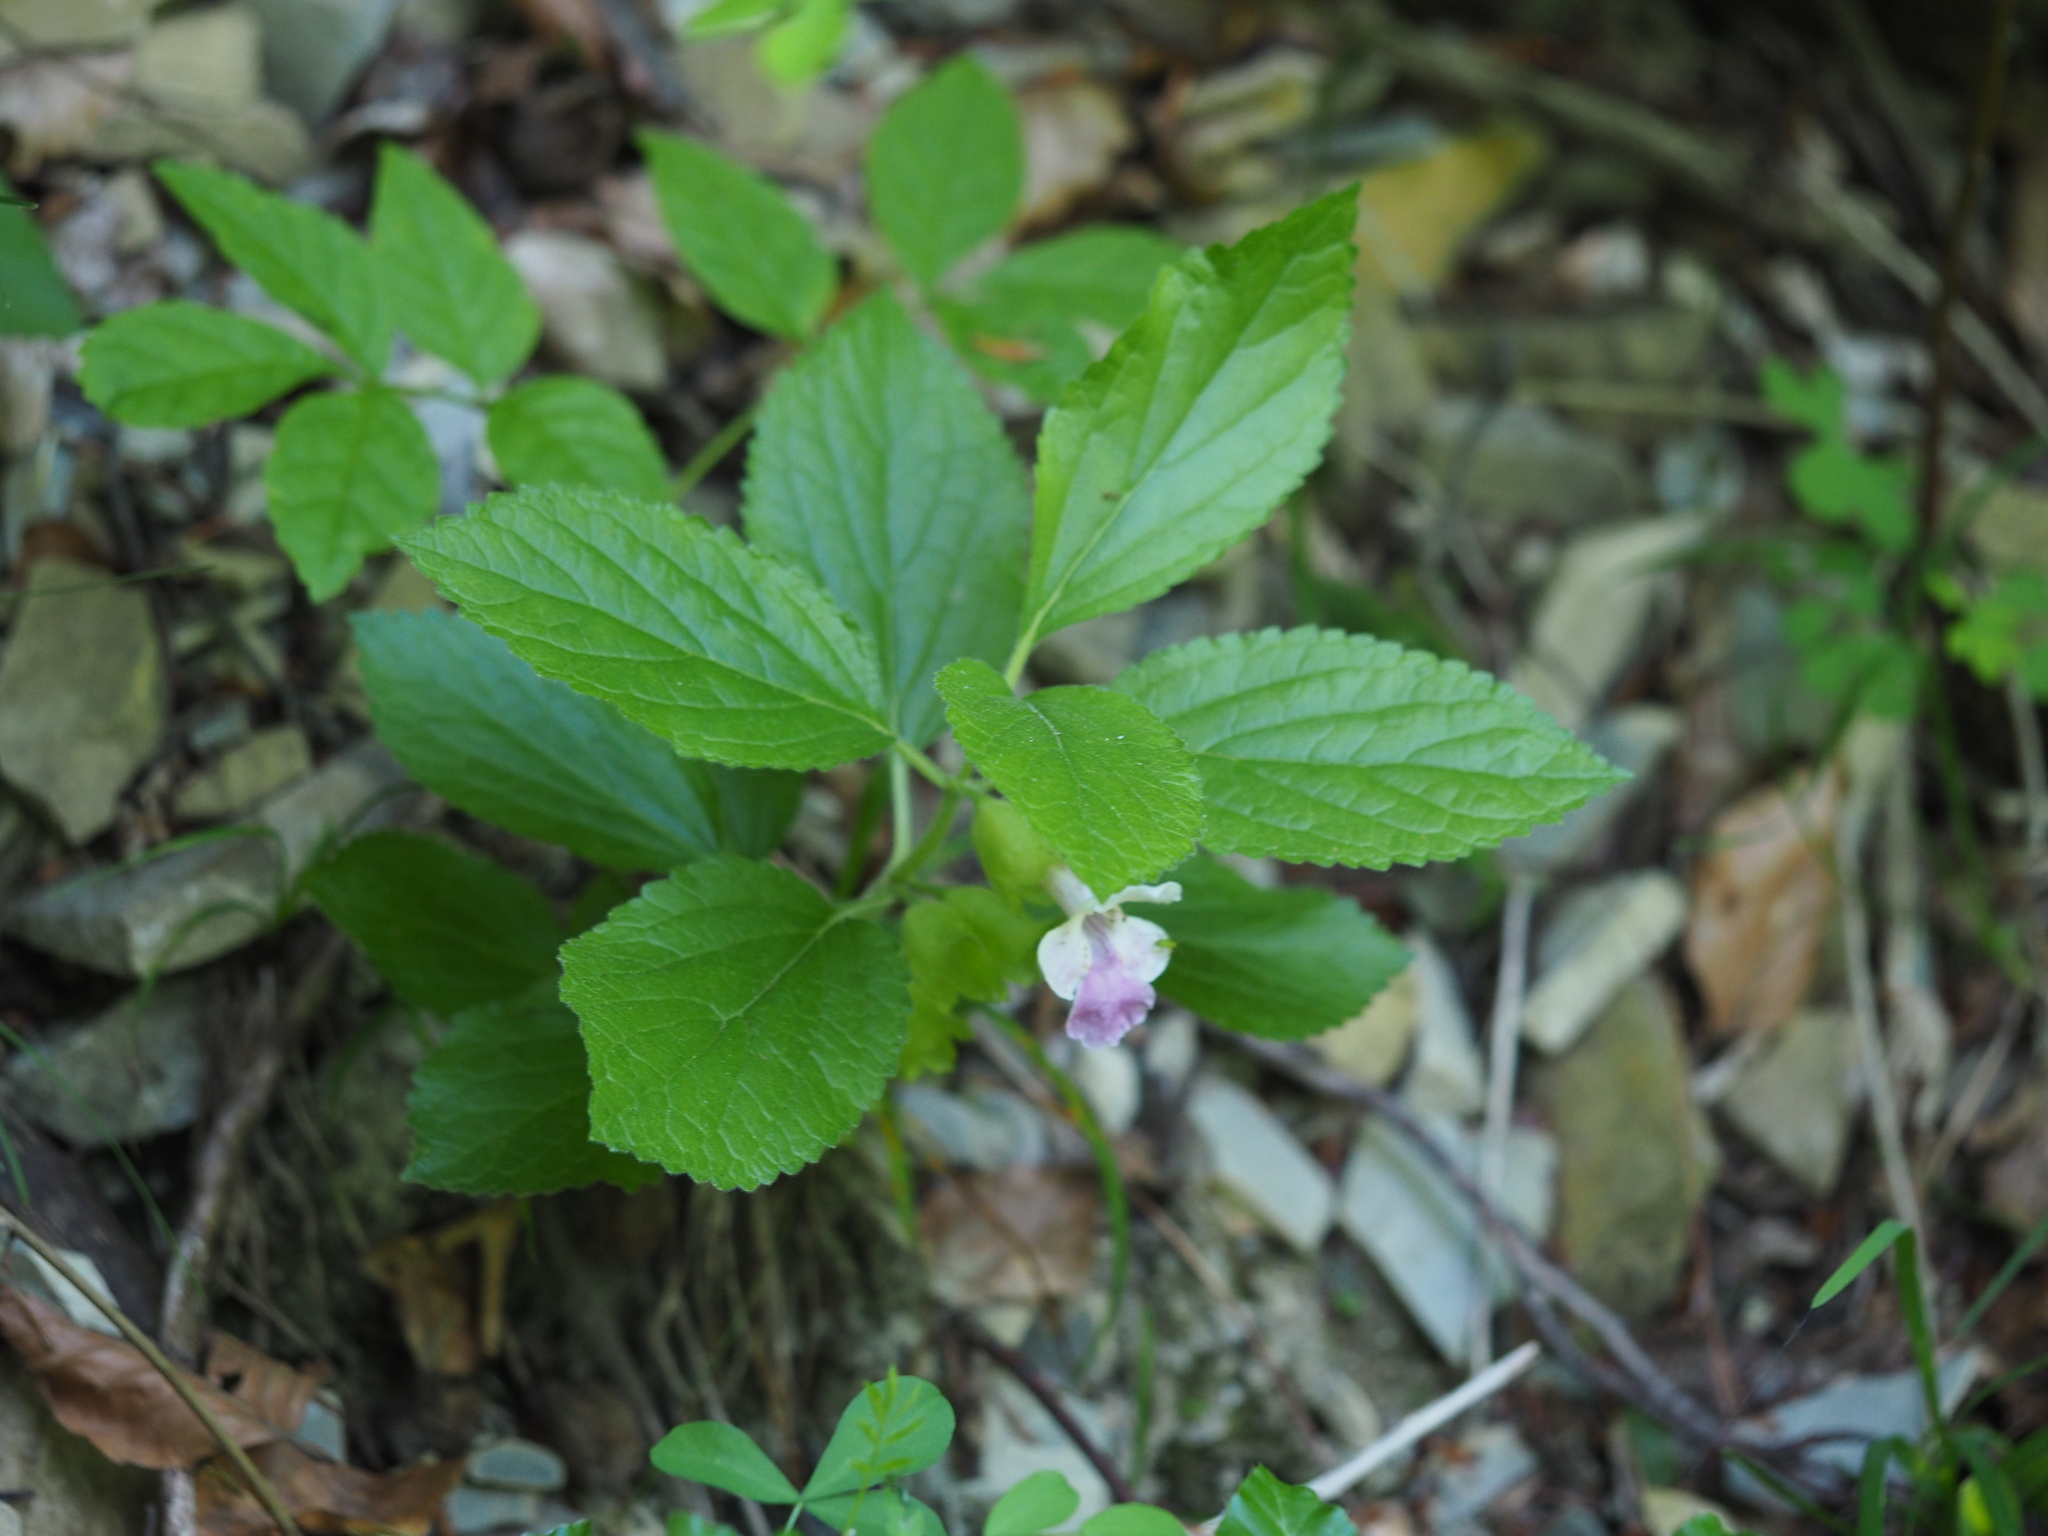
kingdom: Plantae
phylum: Tracheophyta
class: Magnoliopsida
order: Lamiales
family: Lamiaceae
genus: Melittis
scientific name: Melittis melissophyllum
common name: Bastard balm
